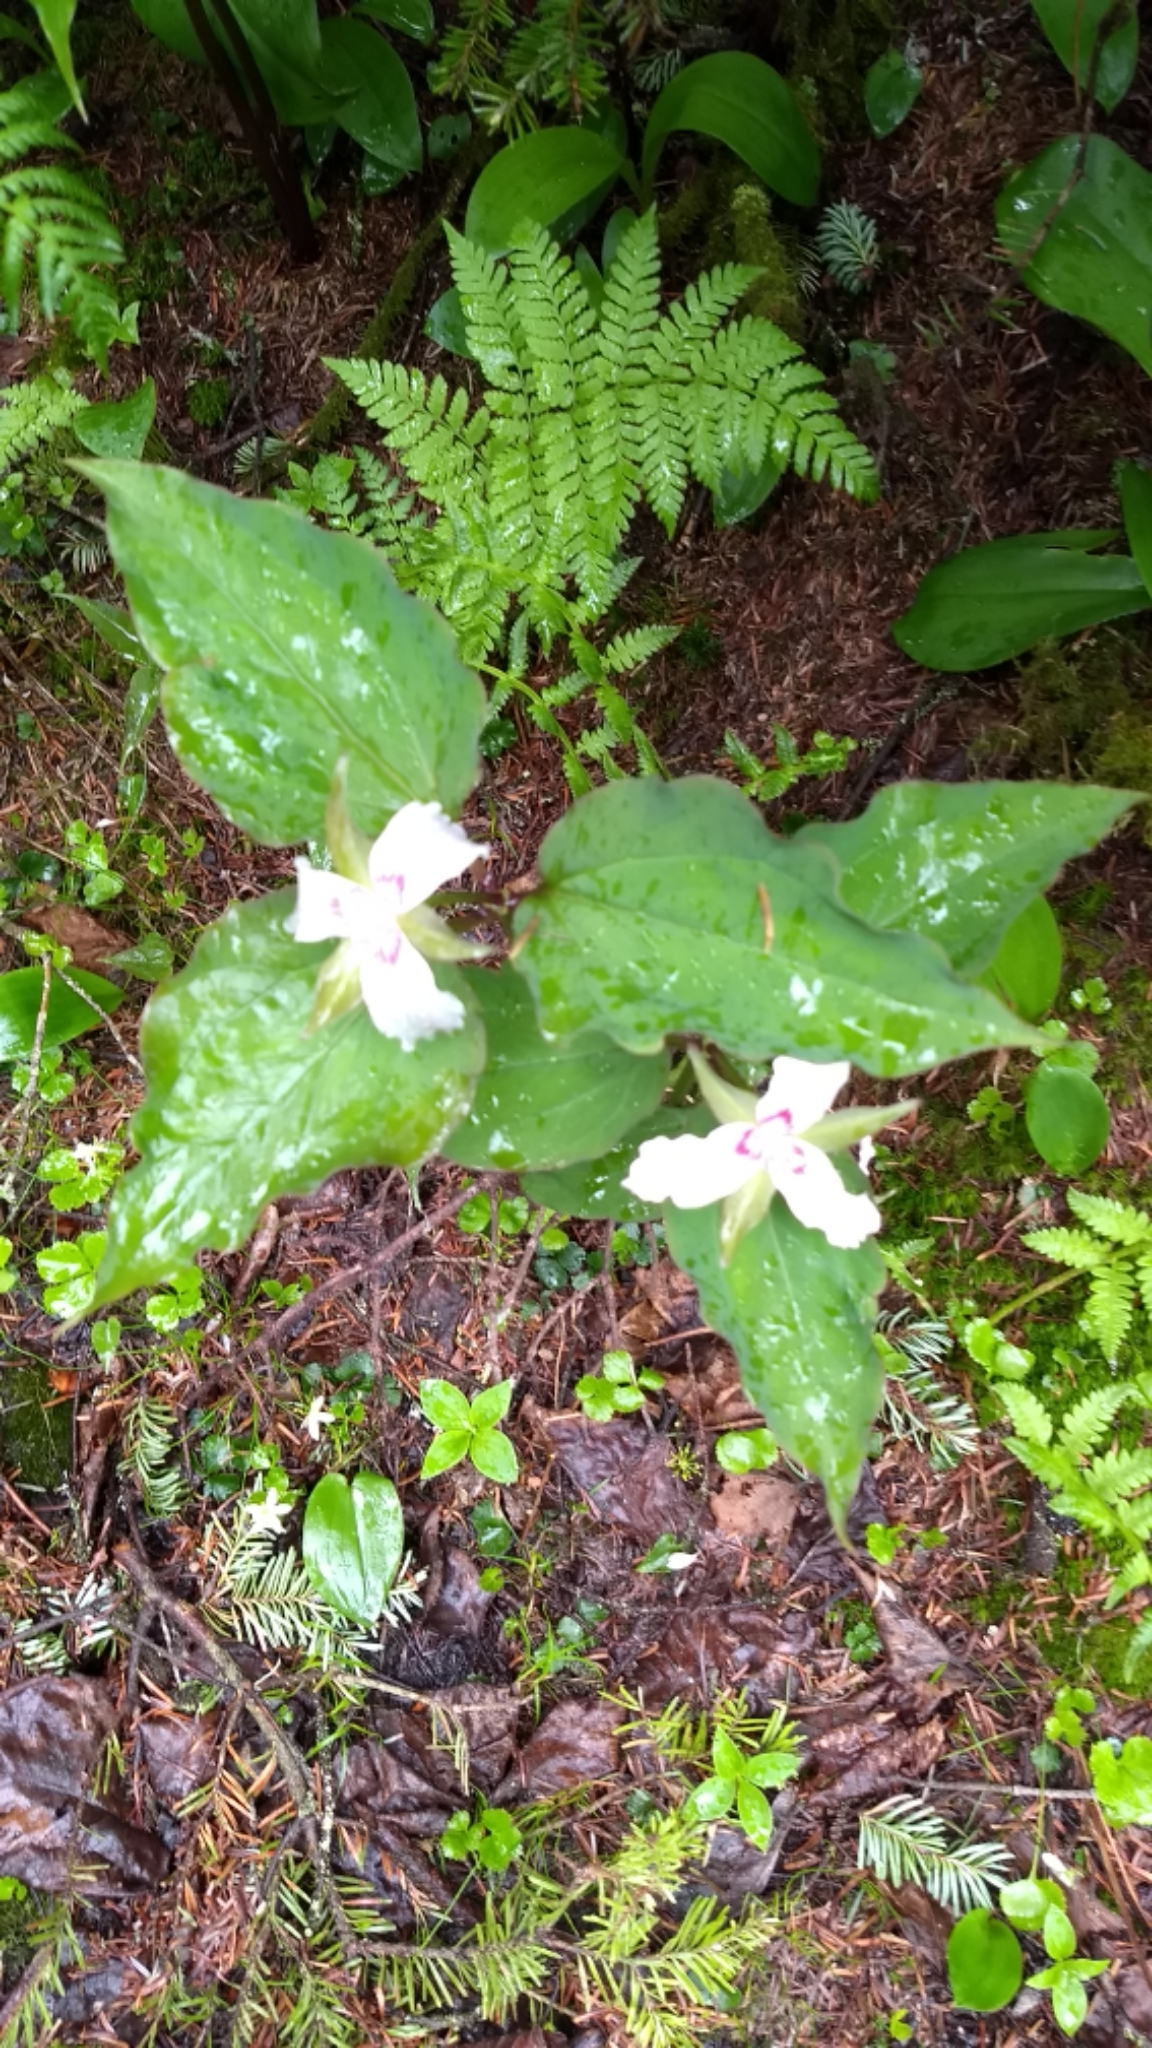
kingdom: Plantae
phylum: Tracheophyta
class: Liliopsida
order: Liliales
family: Melanthiaceae
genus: Trillium
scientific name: Trillium undulatum
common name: Paint trillium
